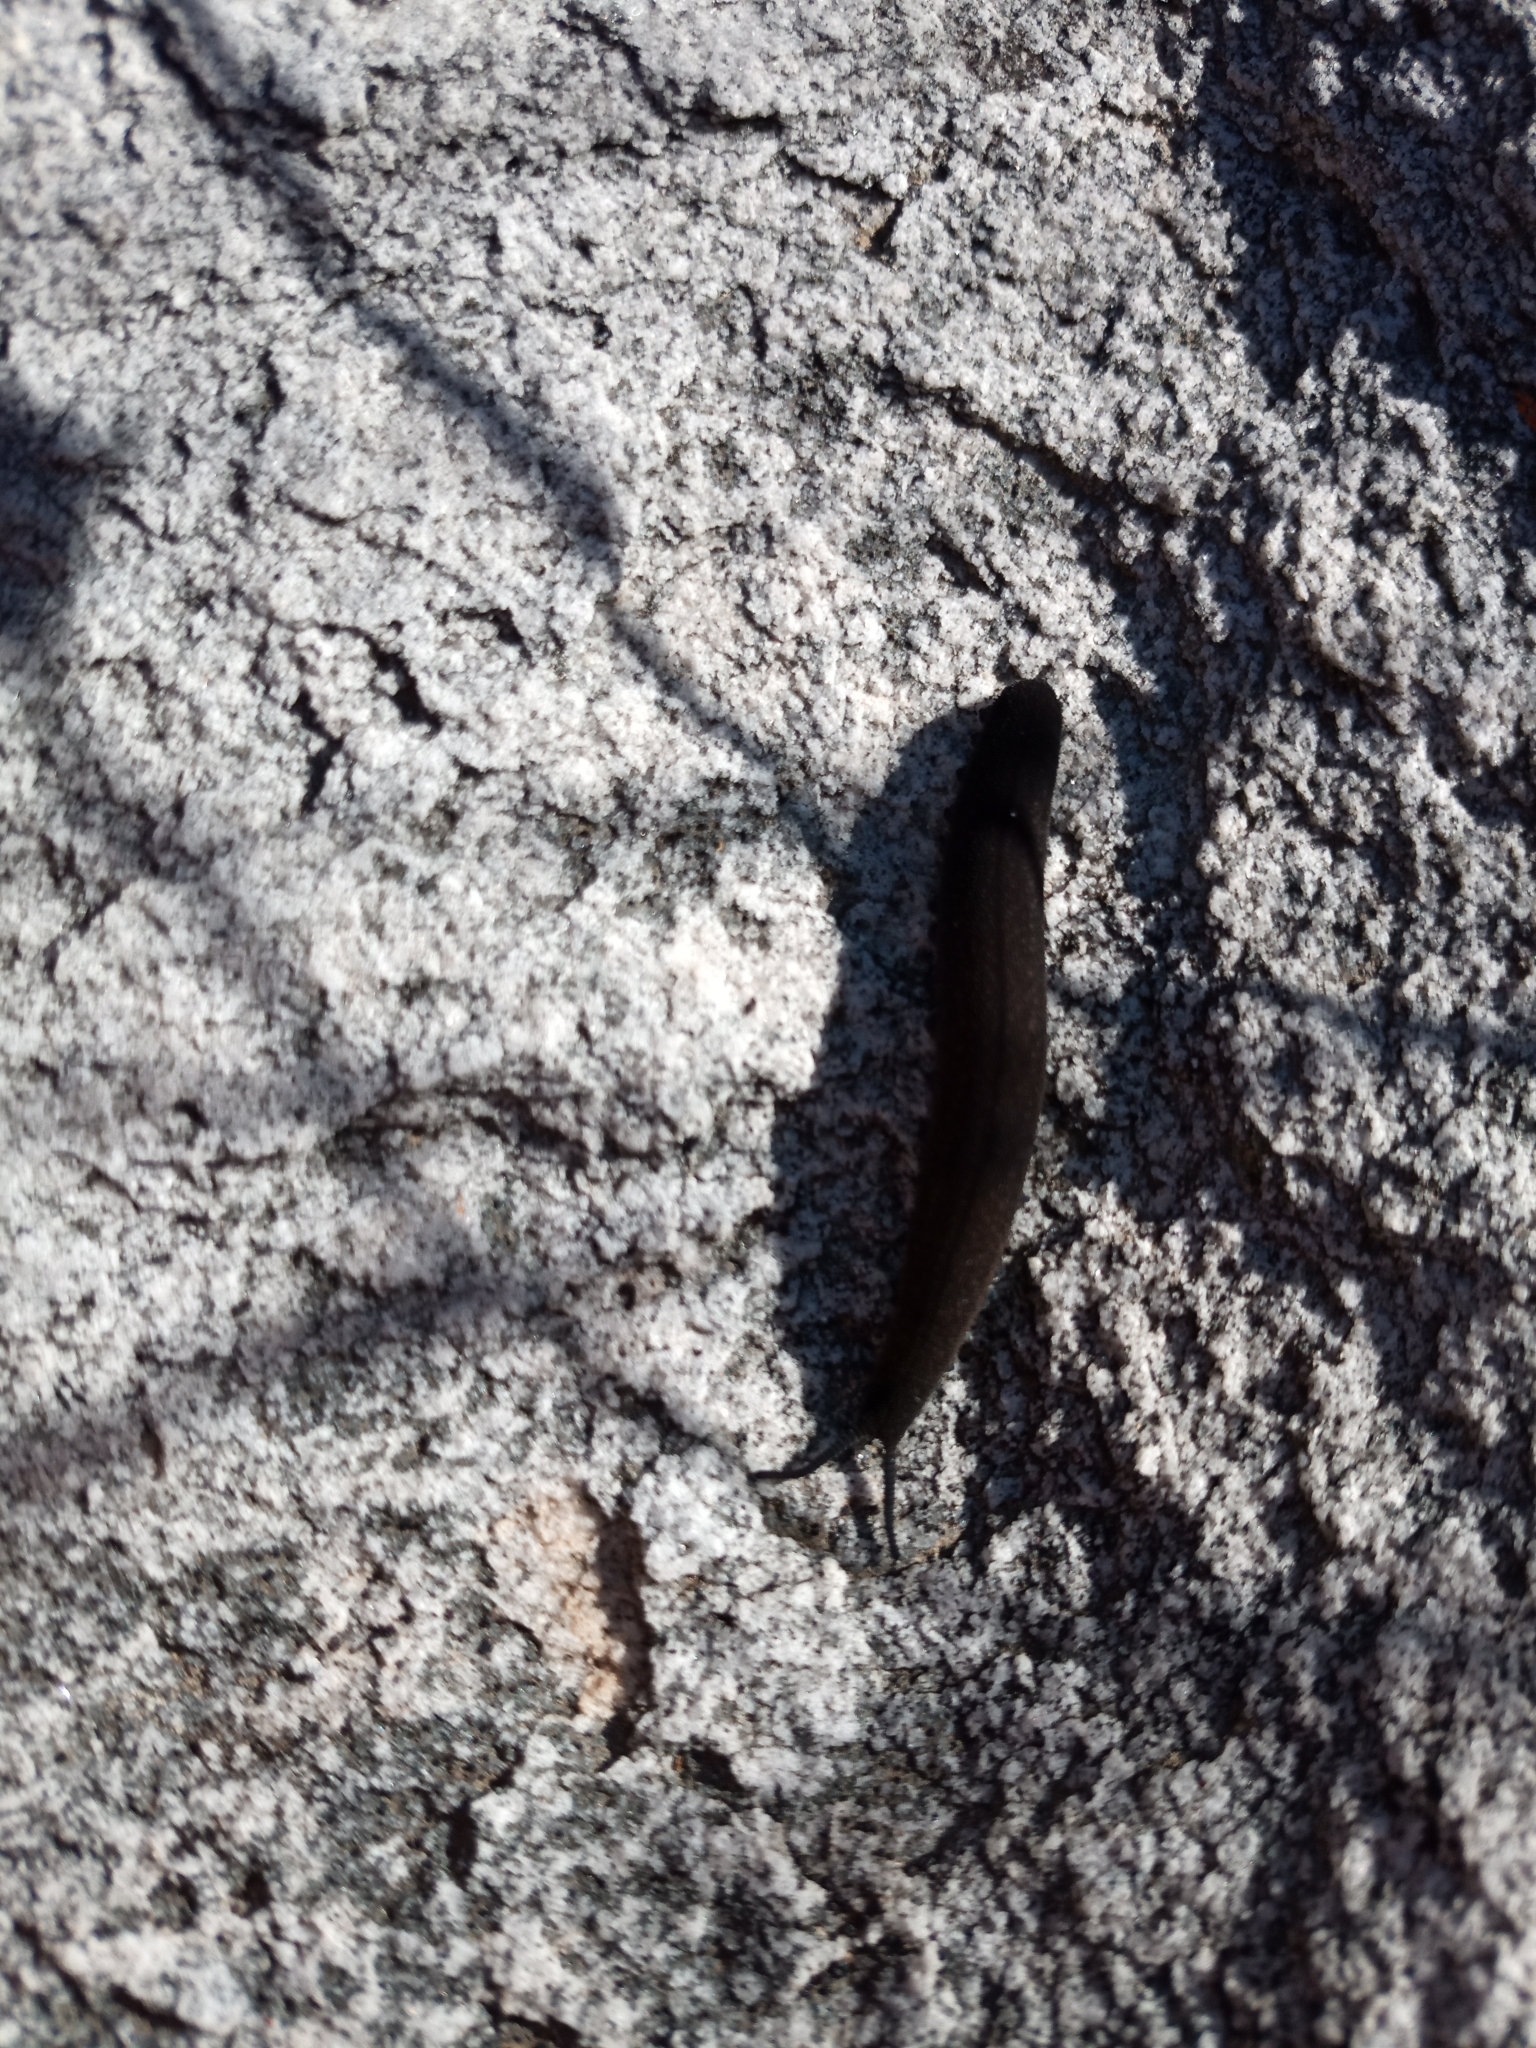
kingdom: Animalia
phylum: Onychophora
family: Peripatopsidae
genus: Peripatopsis
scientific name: Peripatopsis bolandi
